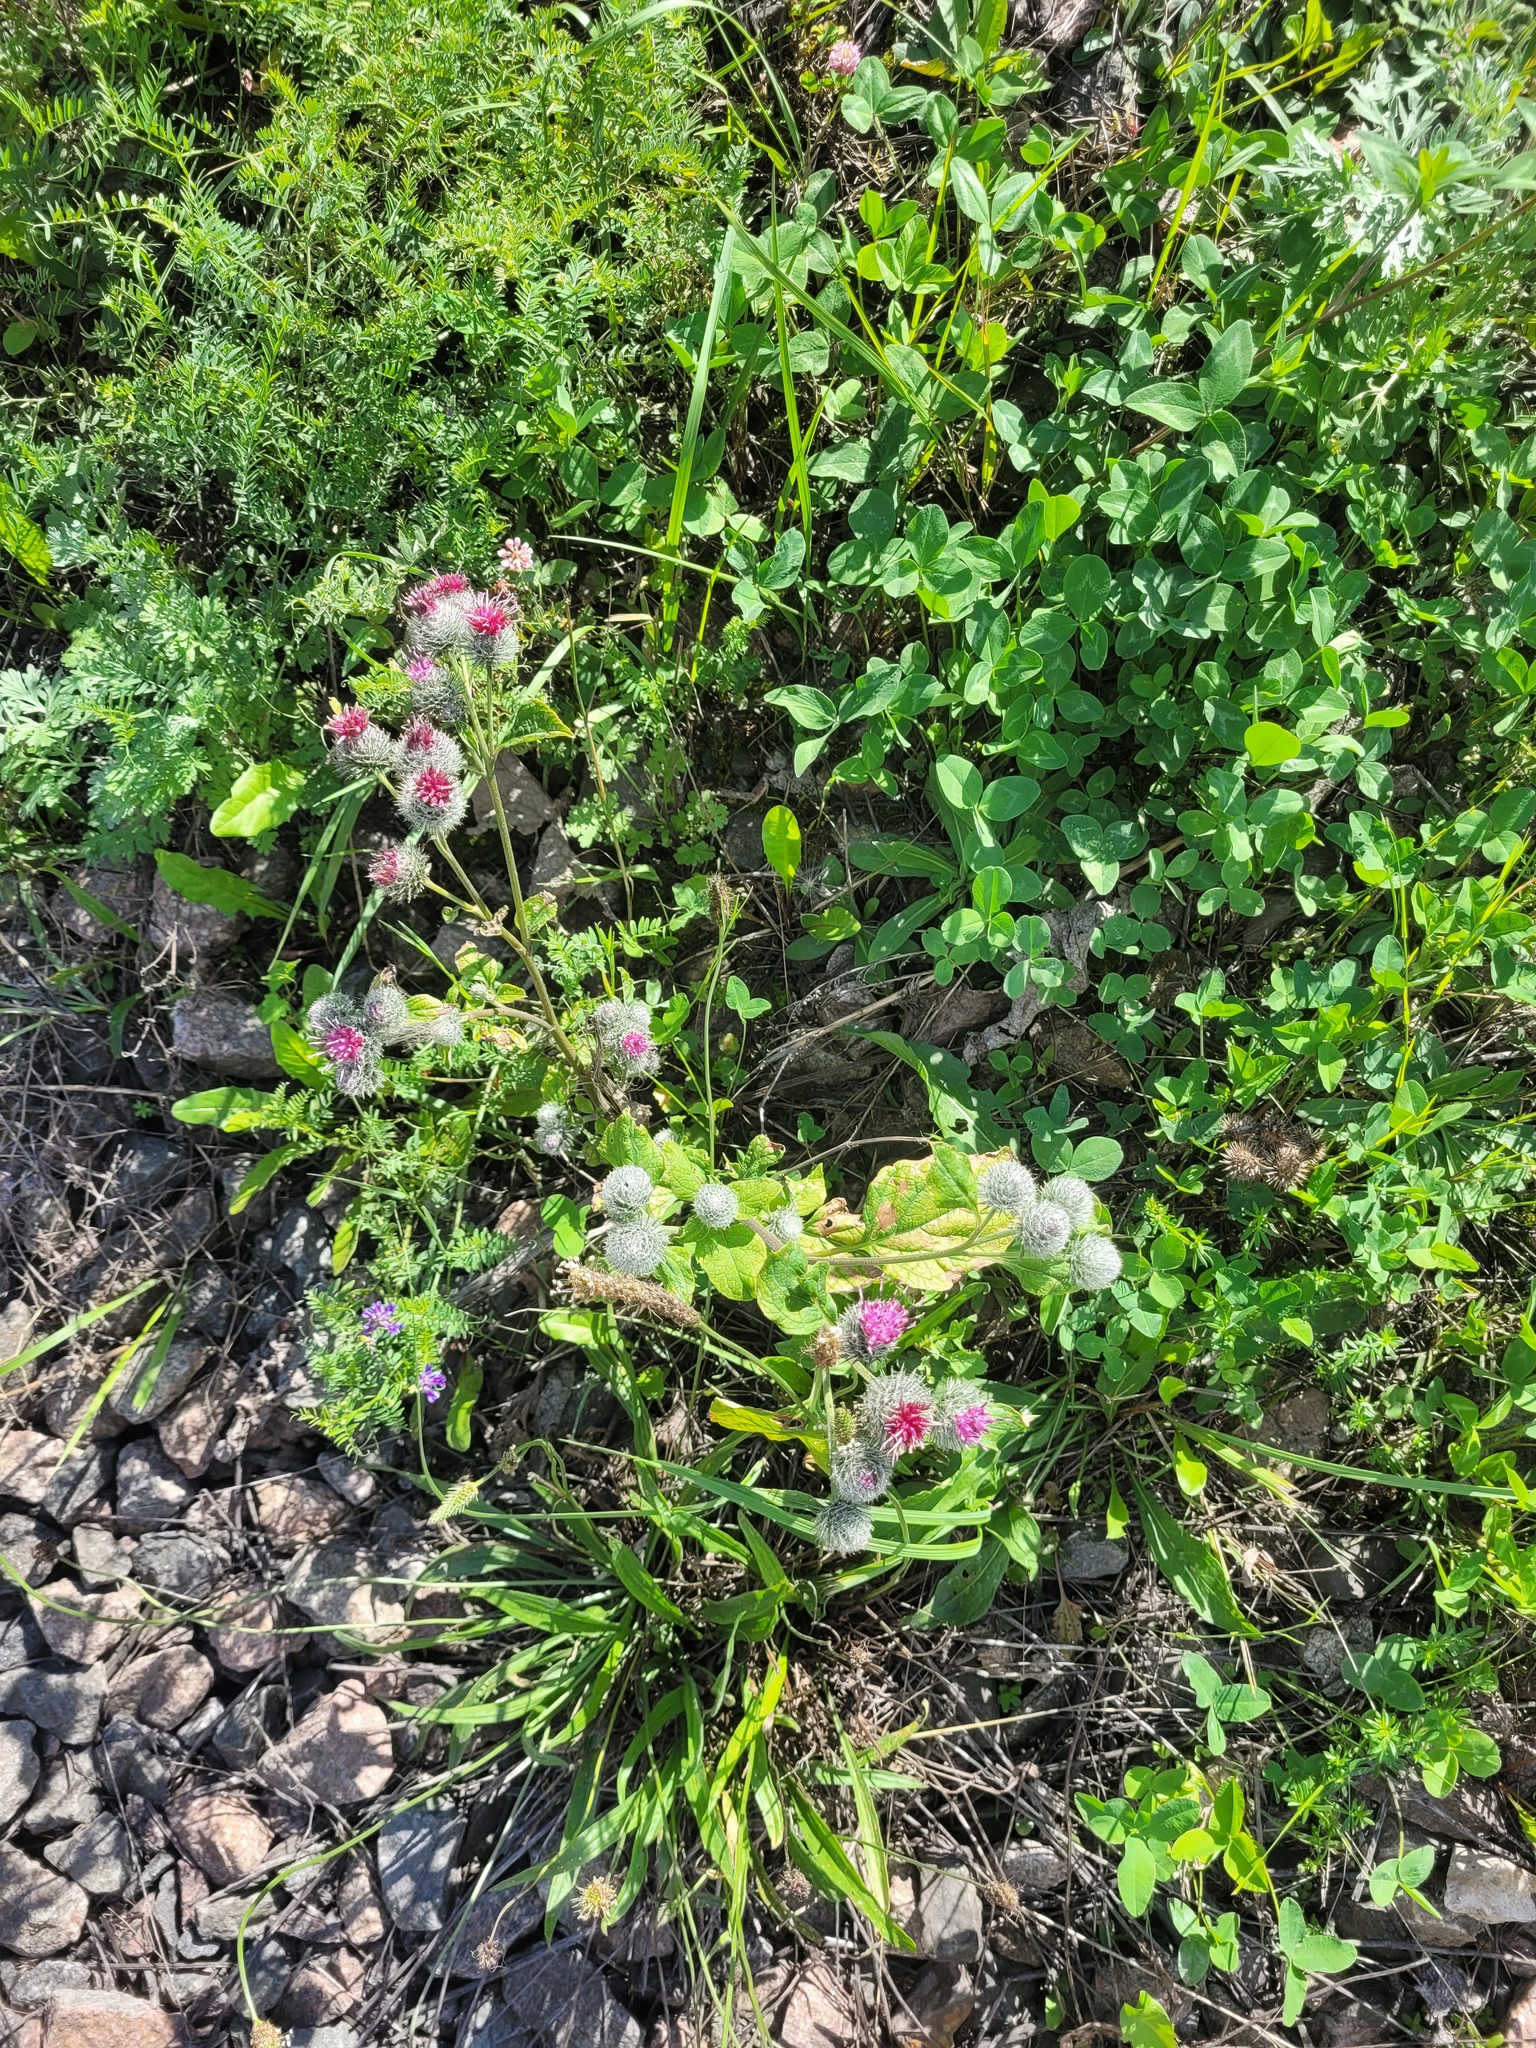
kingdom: Plantae
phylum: Tracheophyta
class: Magnoliopsida
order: Asterales
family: Asteraceae
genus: Arctium
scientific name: Arctium tomentosum
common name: Woolly burdock
